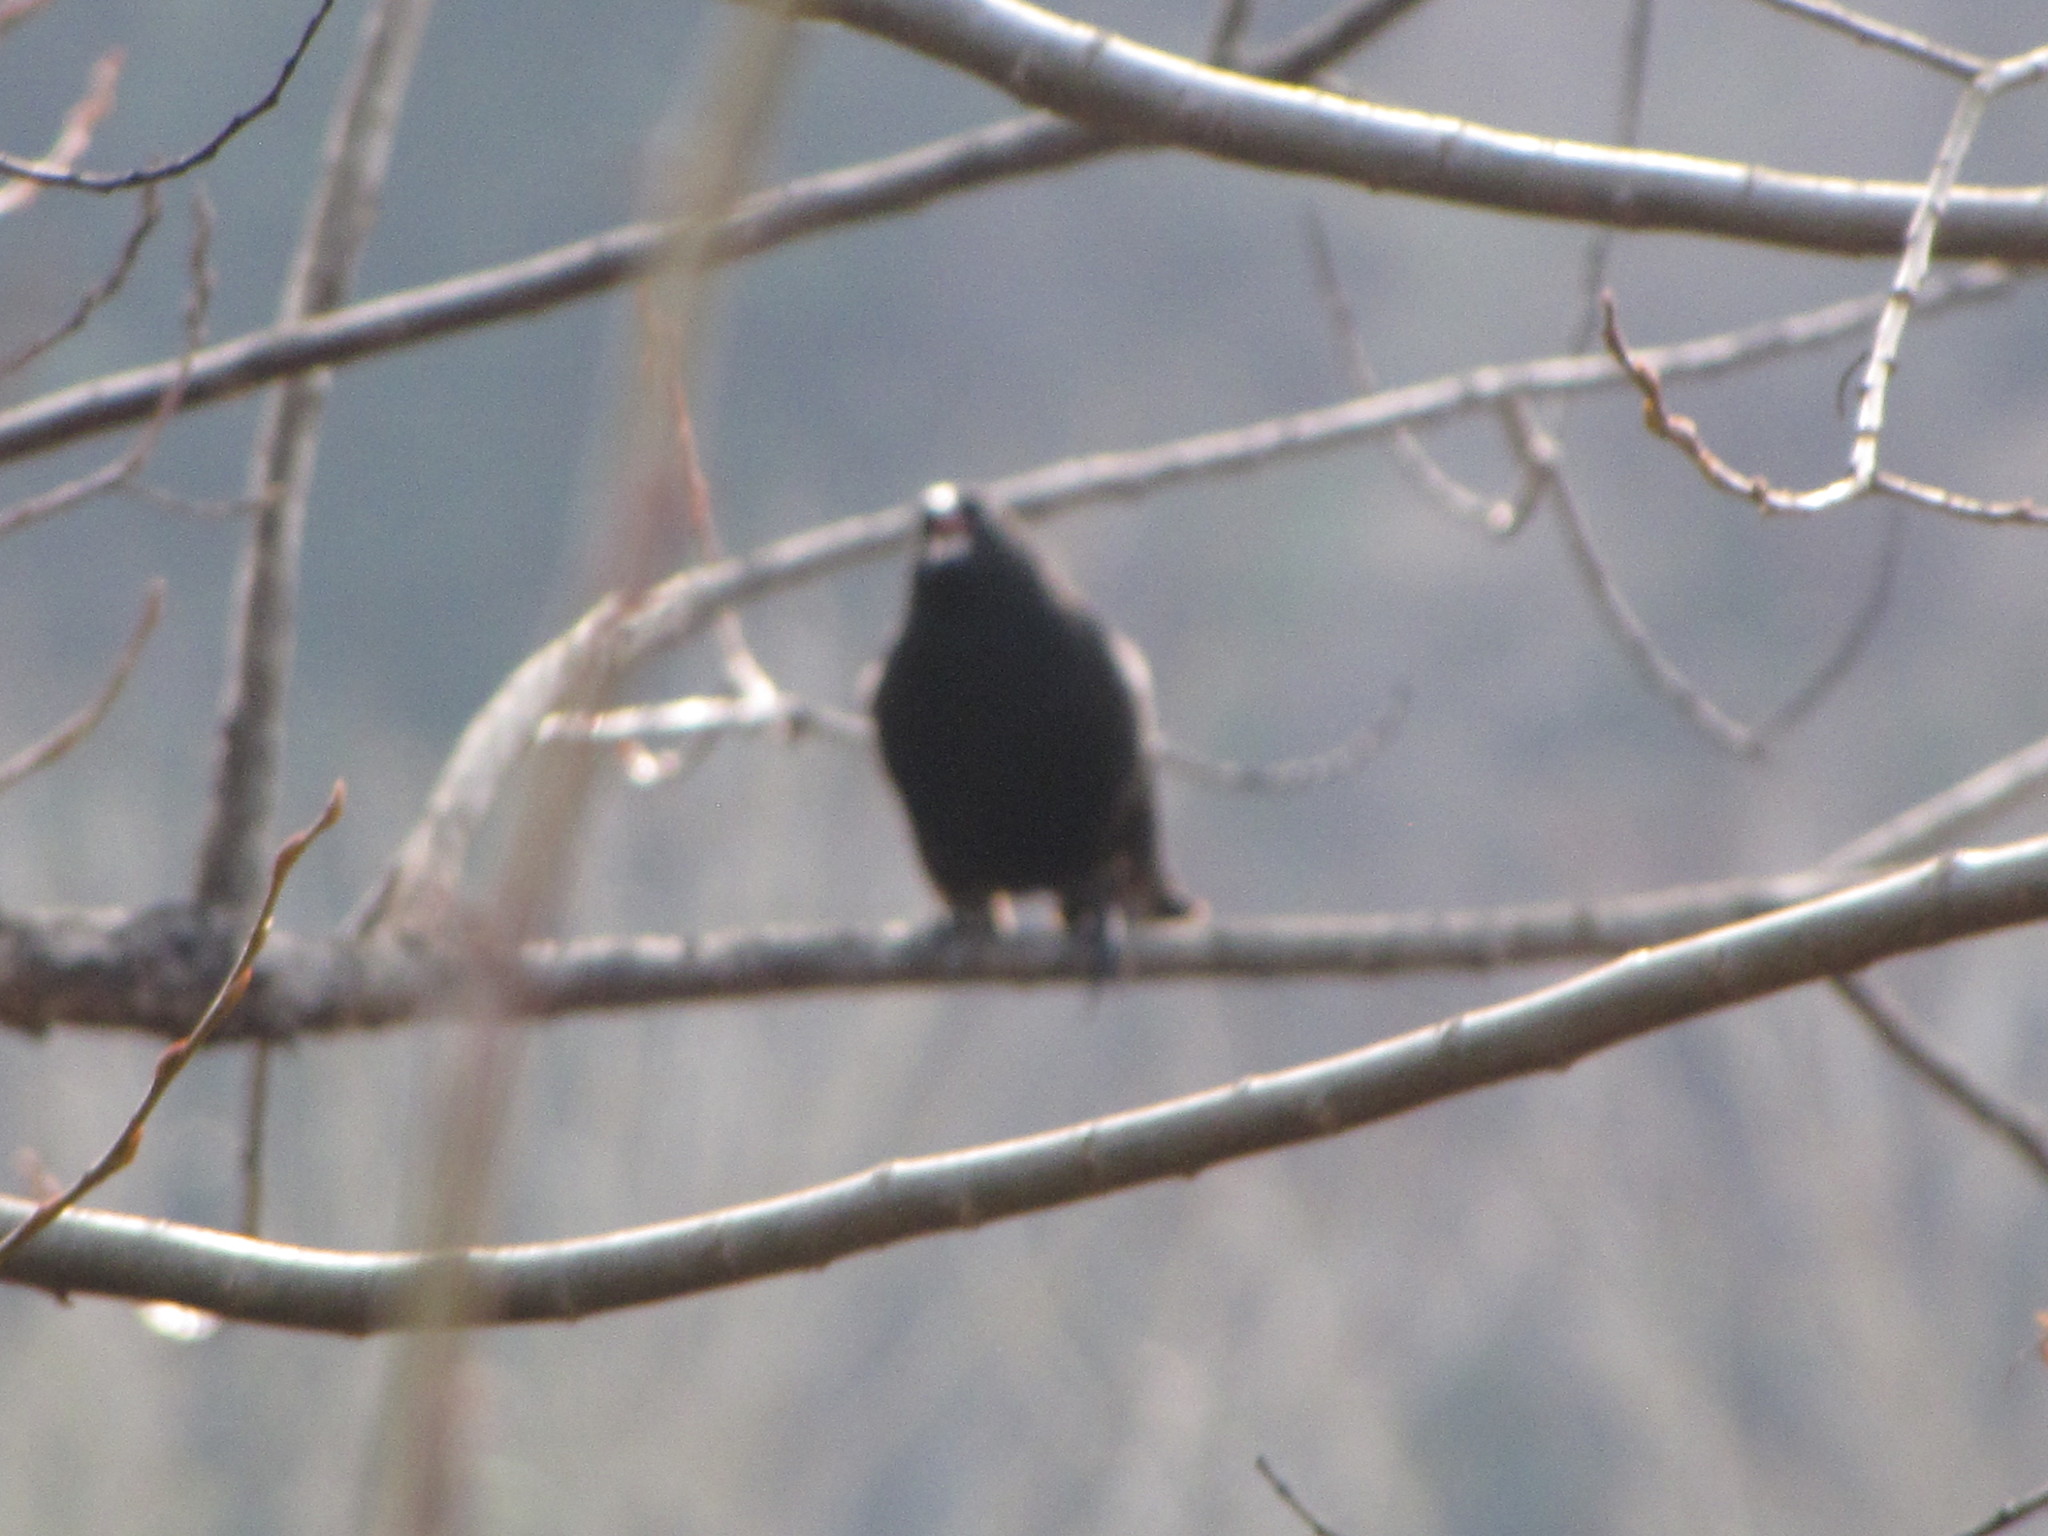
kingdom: Animalia
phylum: Chordata
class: Aves
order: Passeriformes
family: Icteridae
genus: Agelaius
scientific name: Agelaius phoeniceus
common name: Red-winged blackbird
